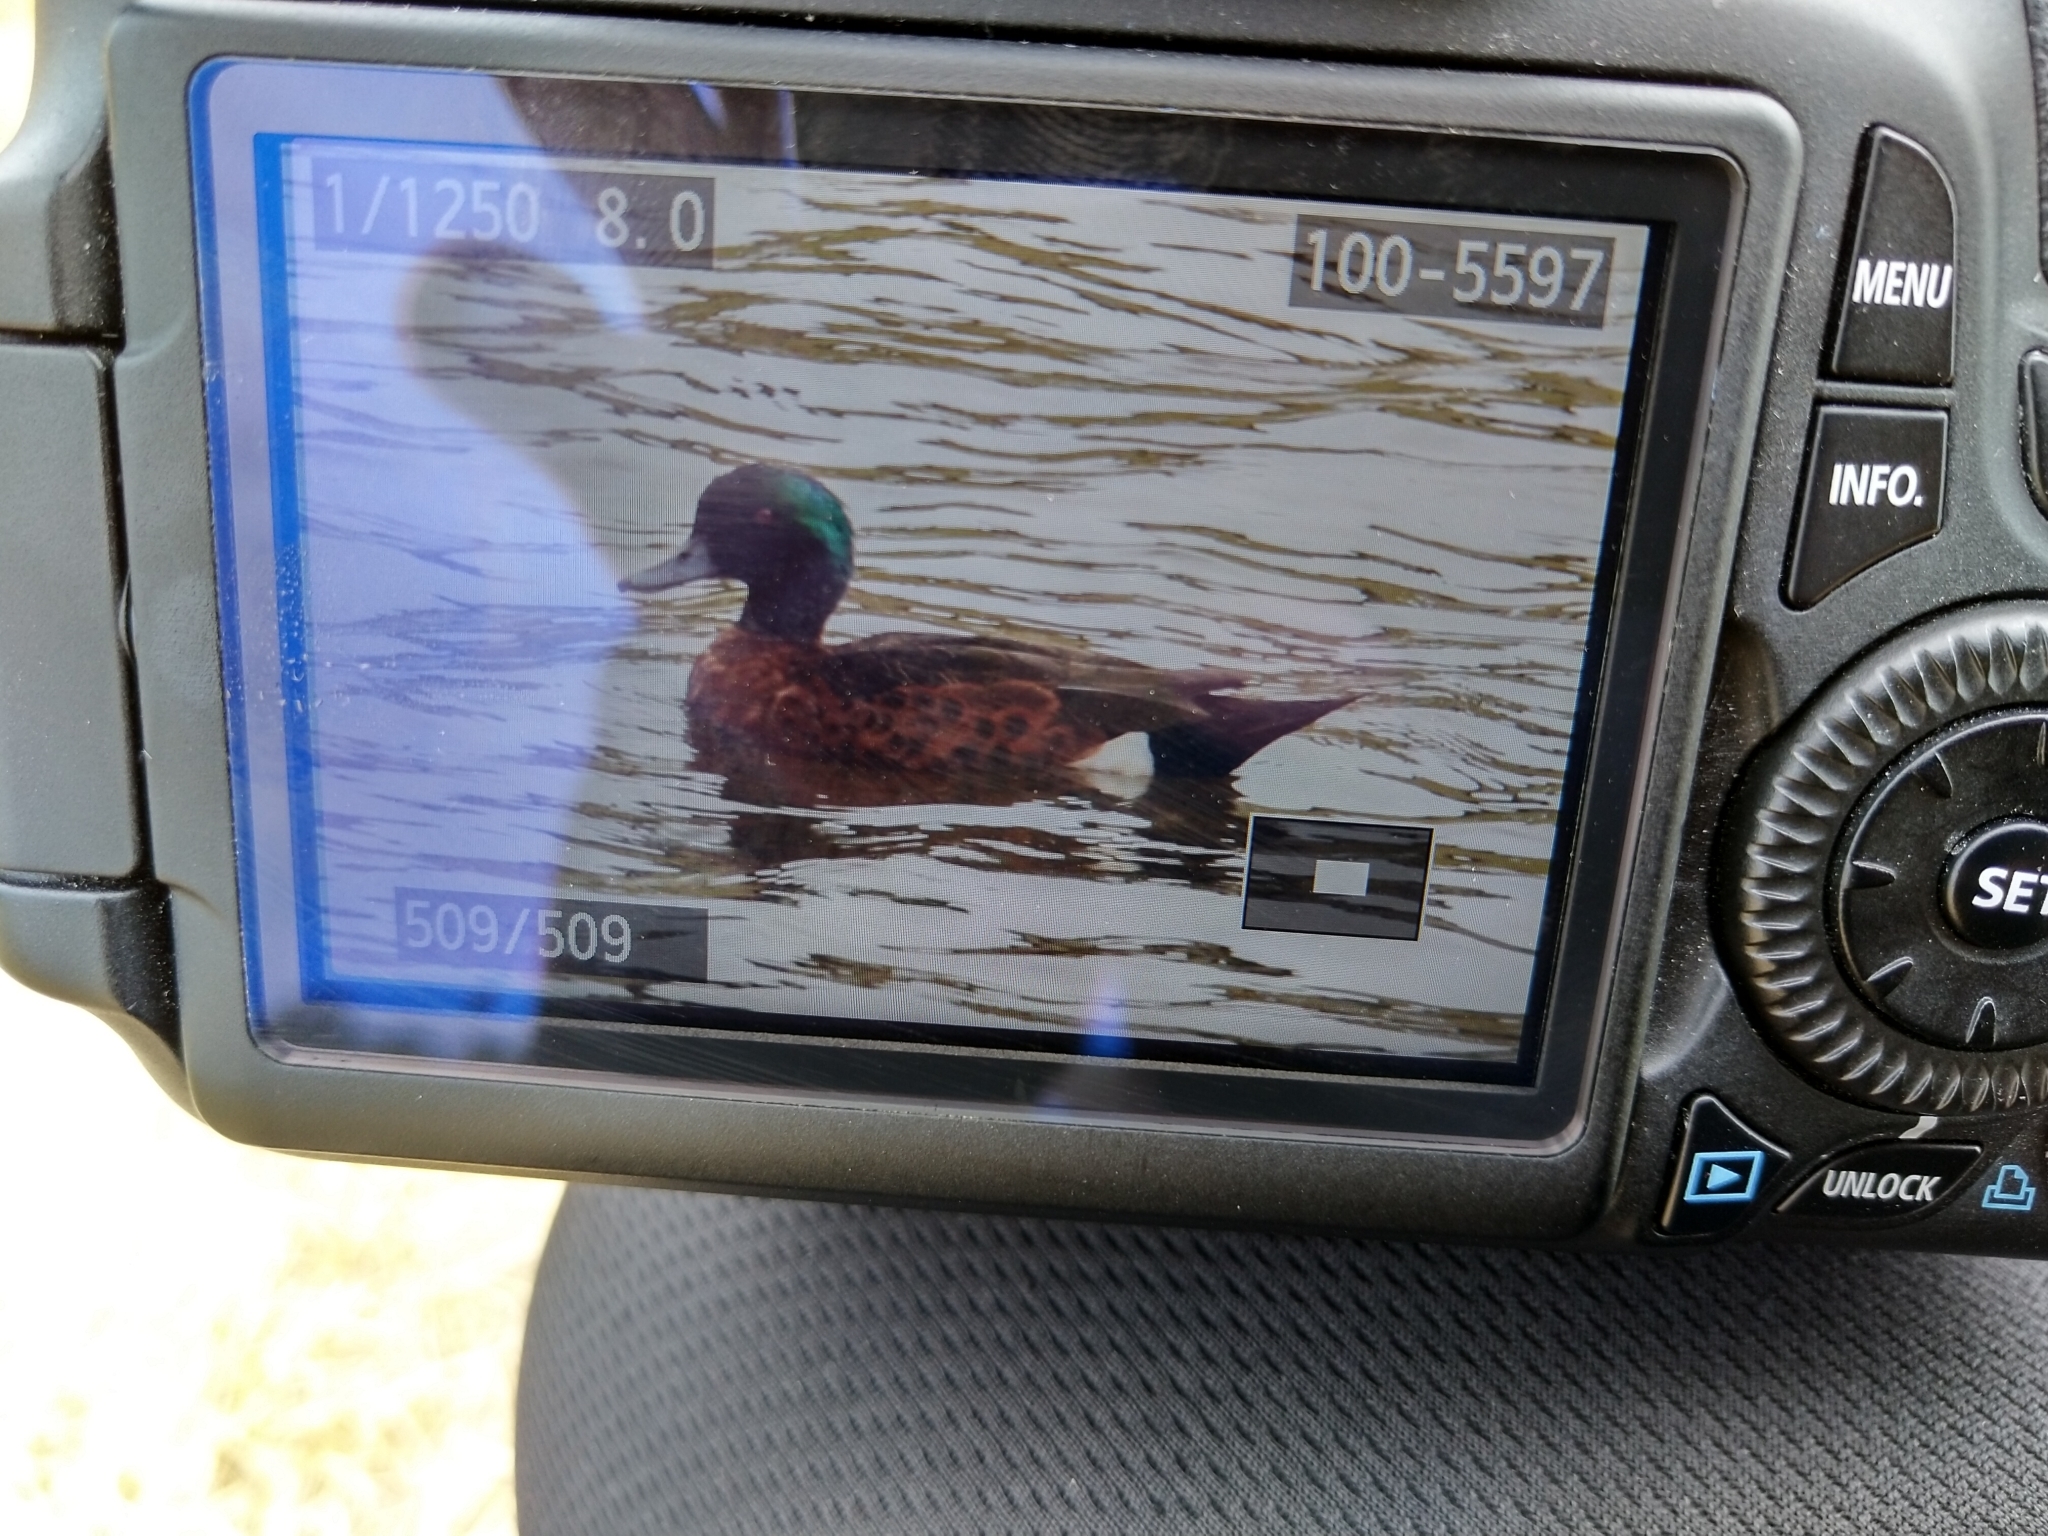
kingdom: Animalia
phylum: Chordata
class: Aves
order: Anseriformes
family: Anatidae
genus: Anas
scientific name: Anas castanea
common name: Chestnut teal
